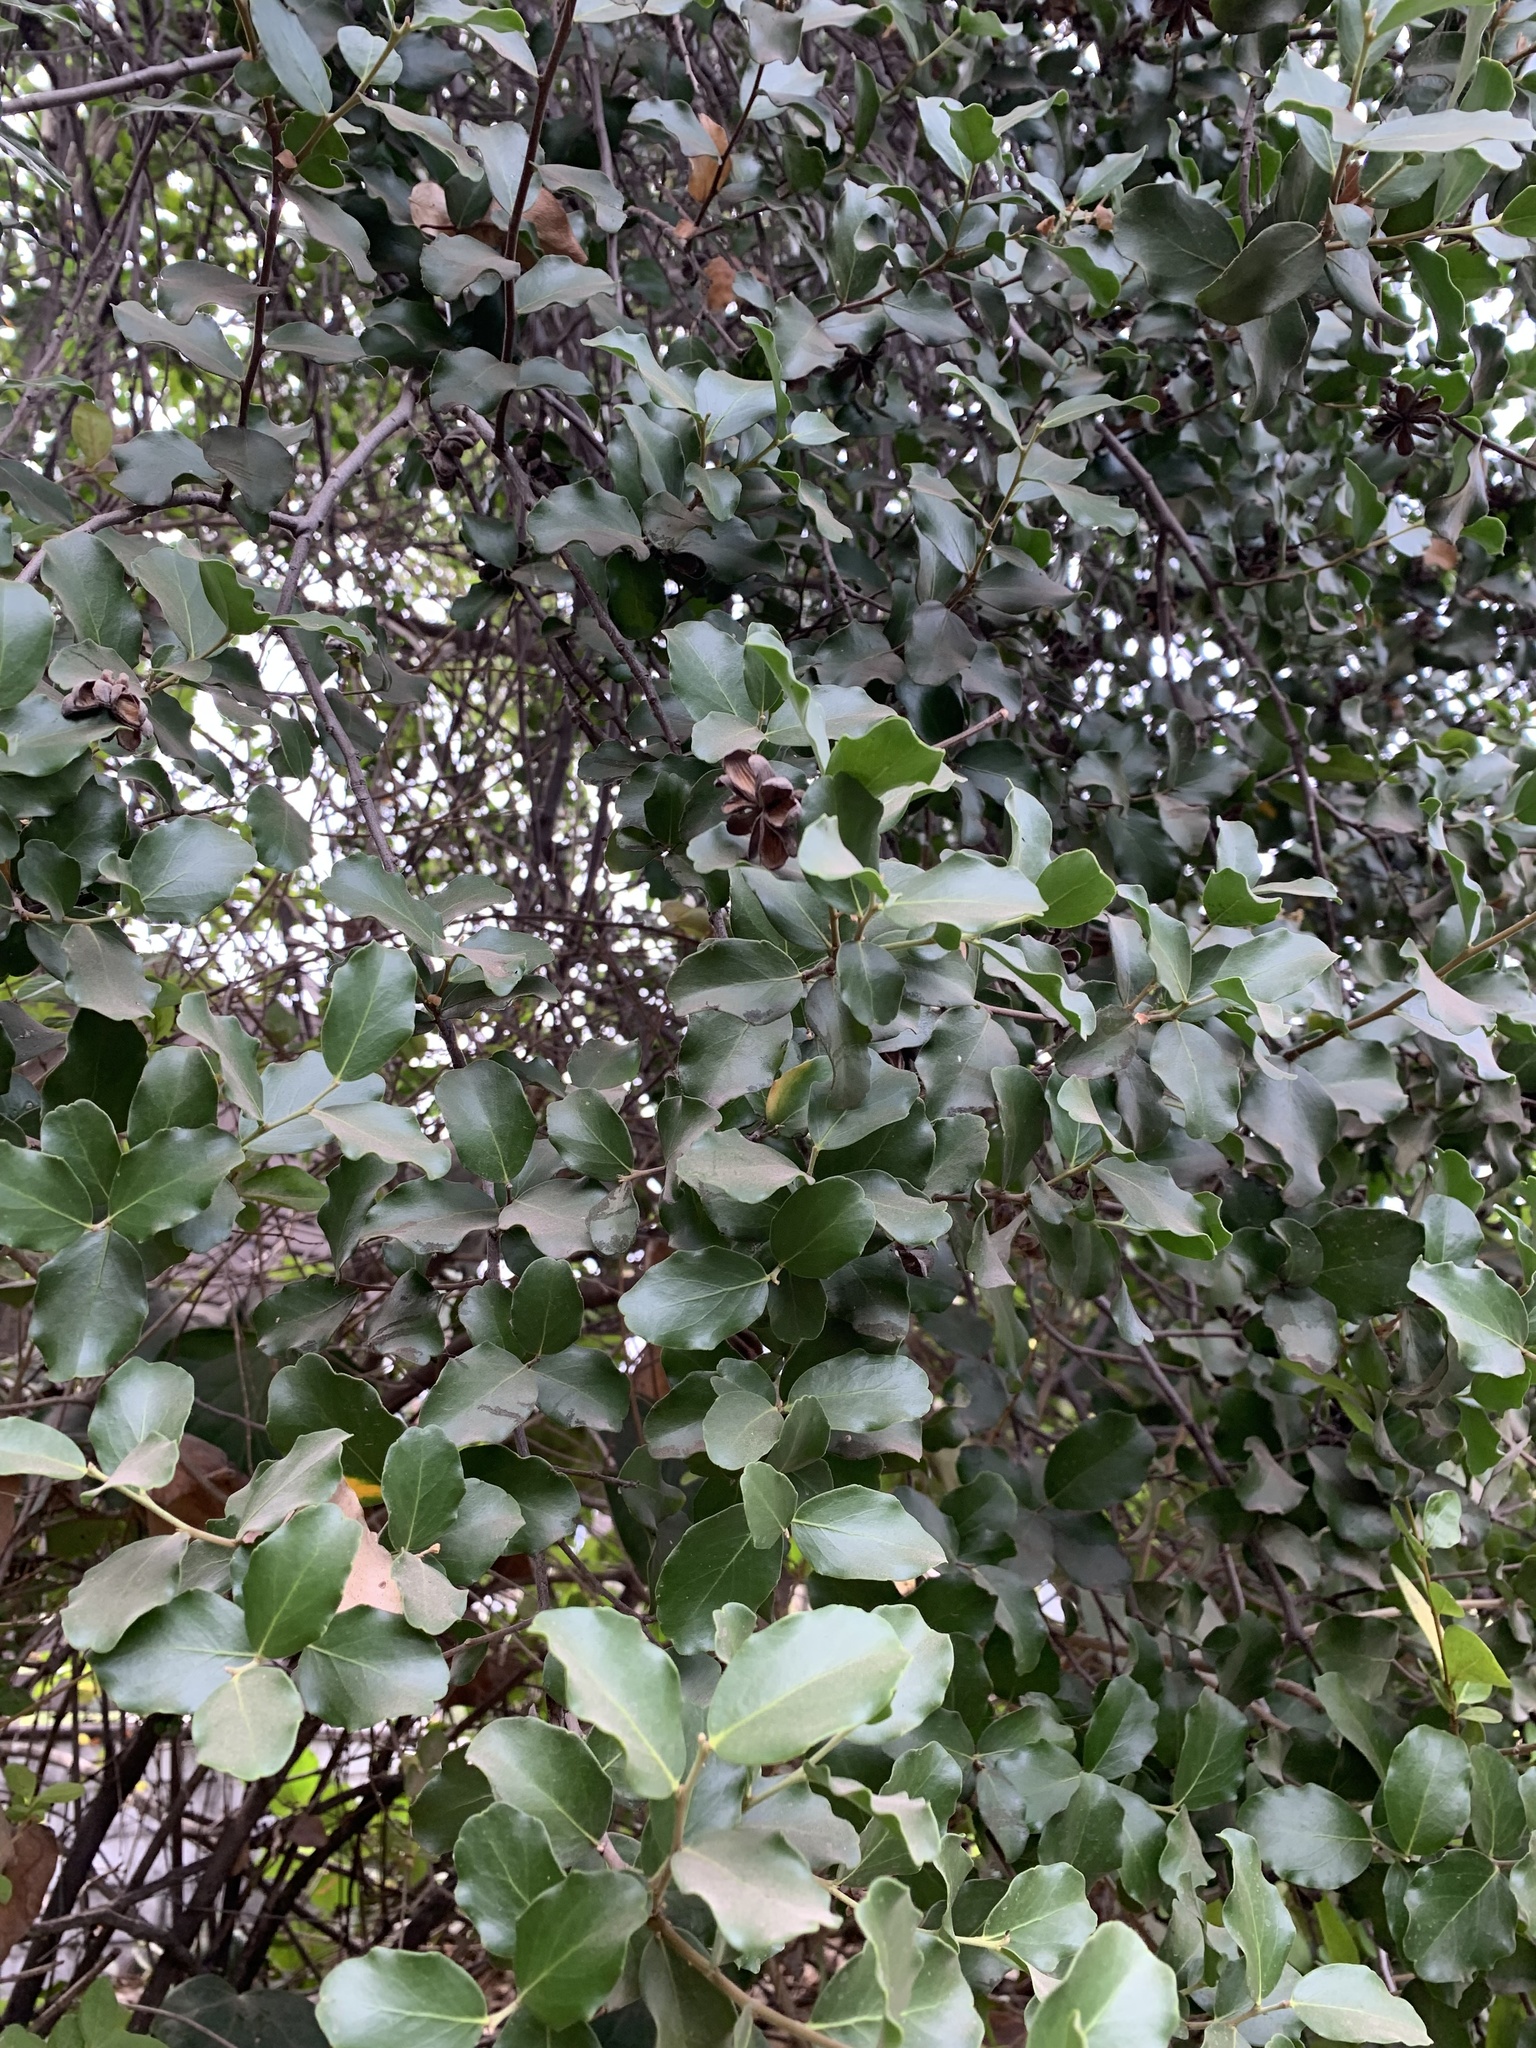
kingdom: Plantae
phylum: Tracheophyta
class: Magnoliopsida
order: Fabales
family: Quillajaceae
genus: Quillaja
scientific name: Quillaja saponaria
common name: Murillo's-bark
